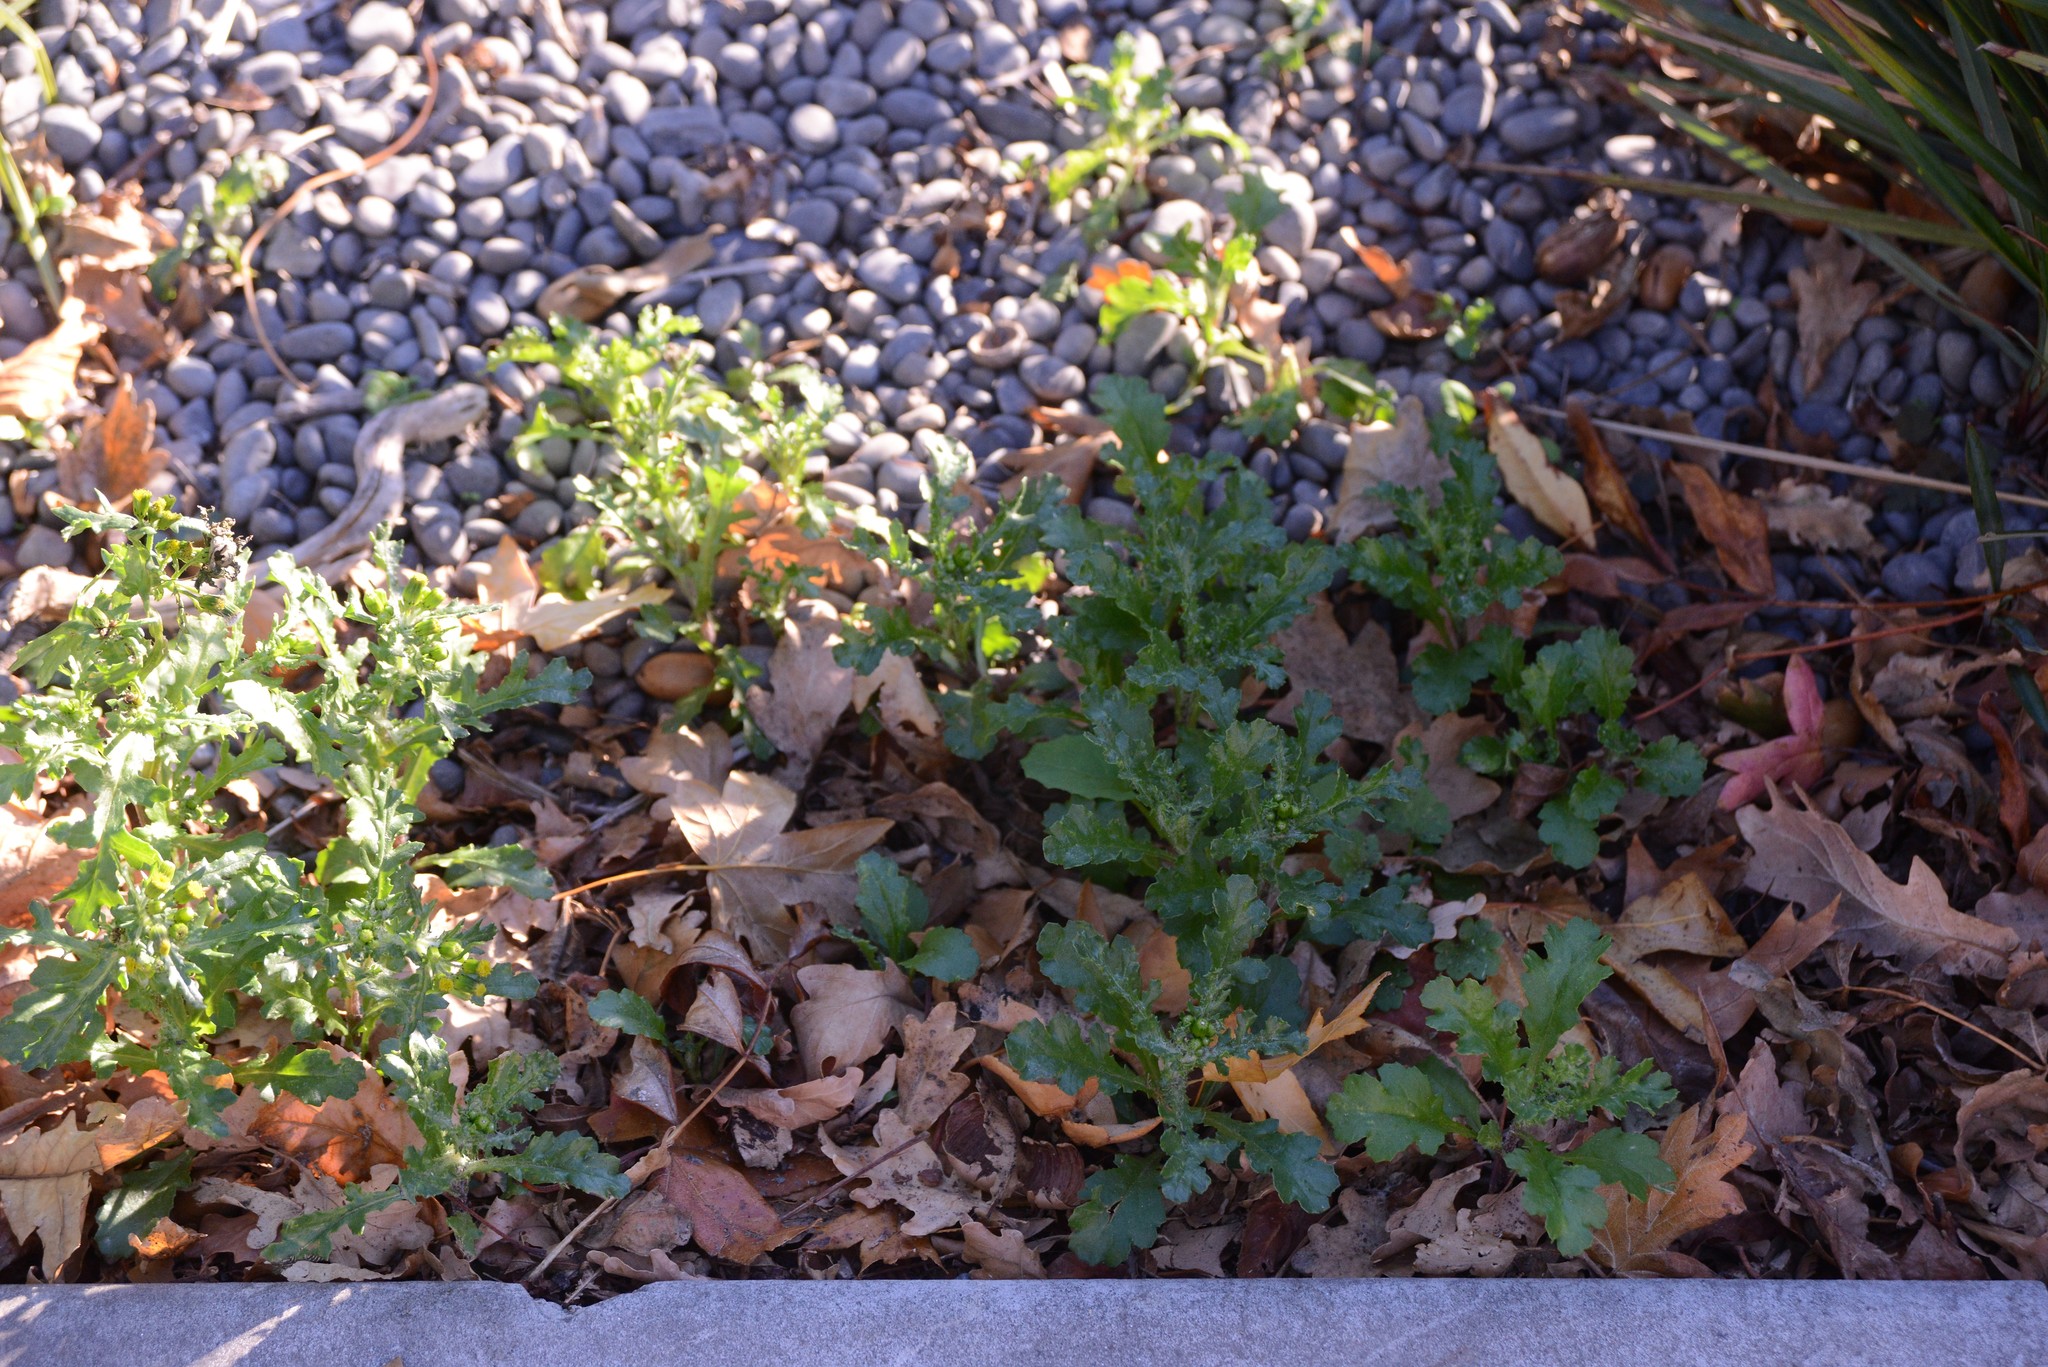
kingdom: Plantae
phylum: Tracheophyta
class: Magnoliopsida
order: Asterales
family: Asteraceae
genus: Senecio
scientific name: Senecio vulgaris
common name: Old-man-in-the-spring
